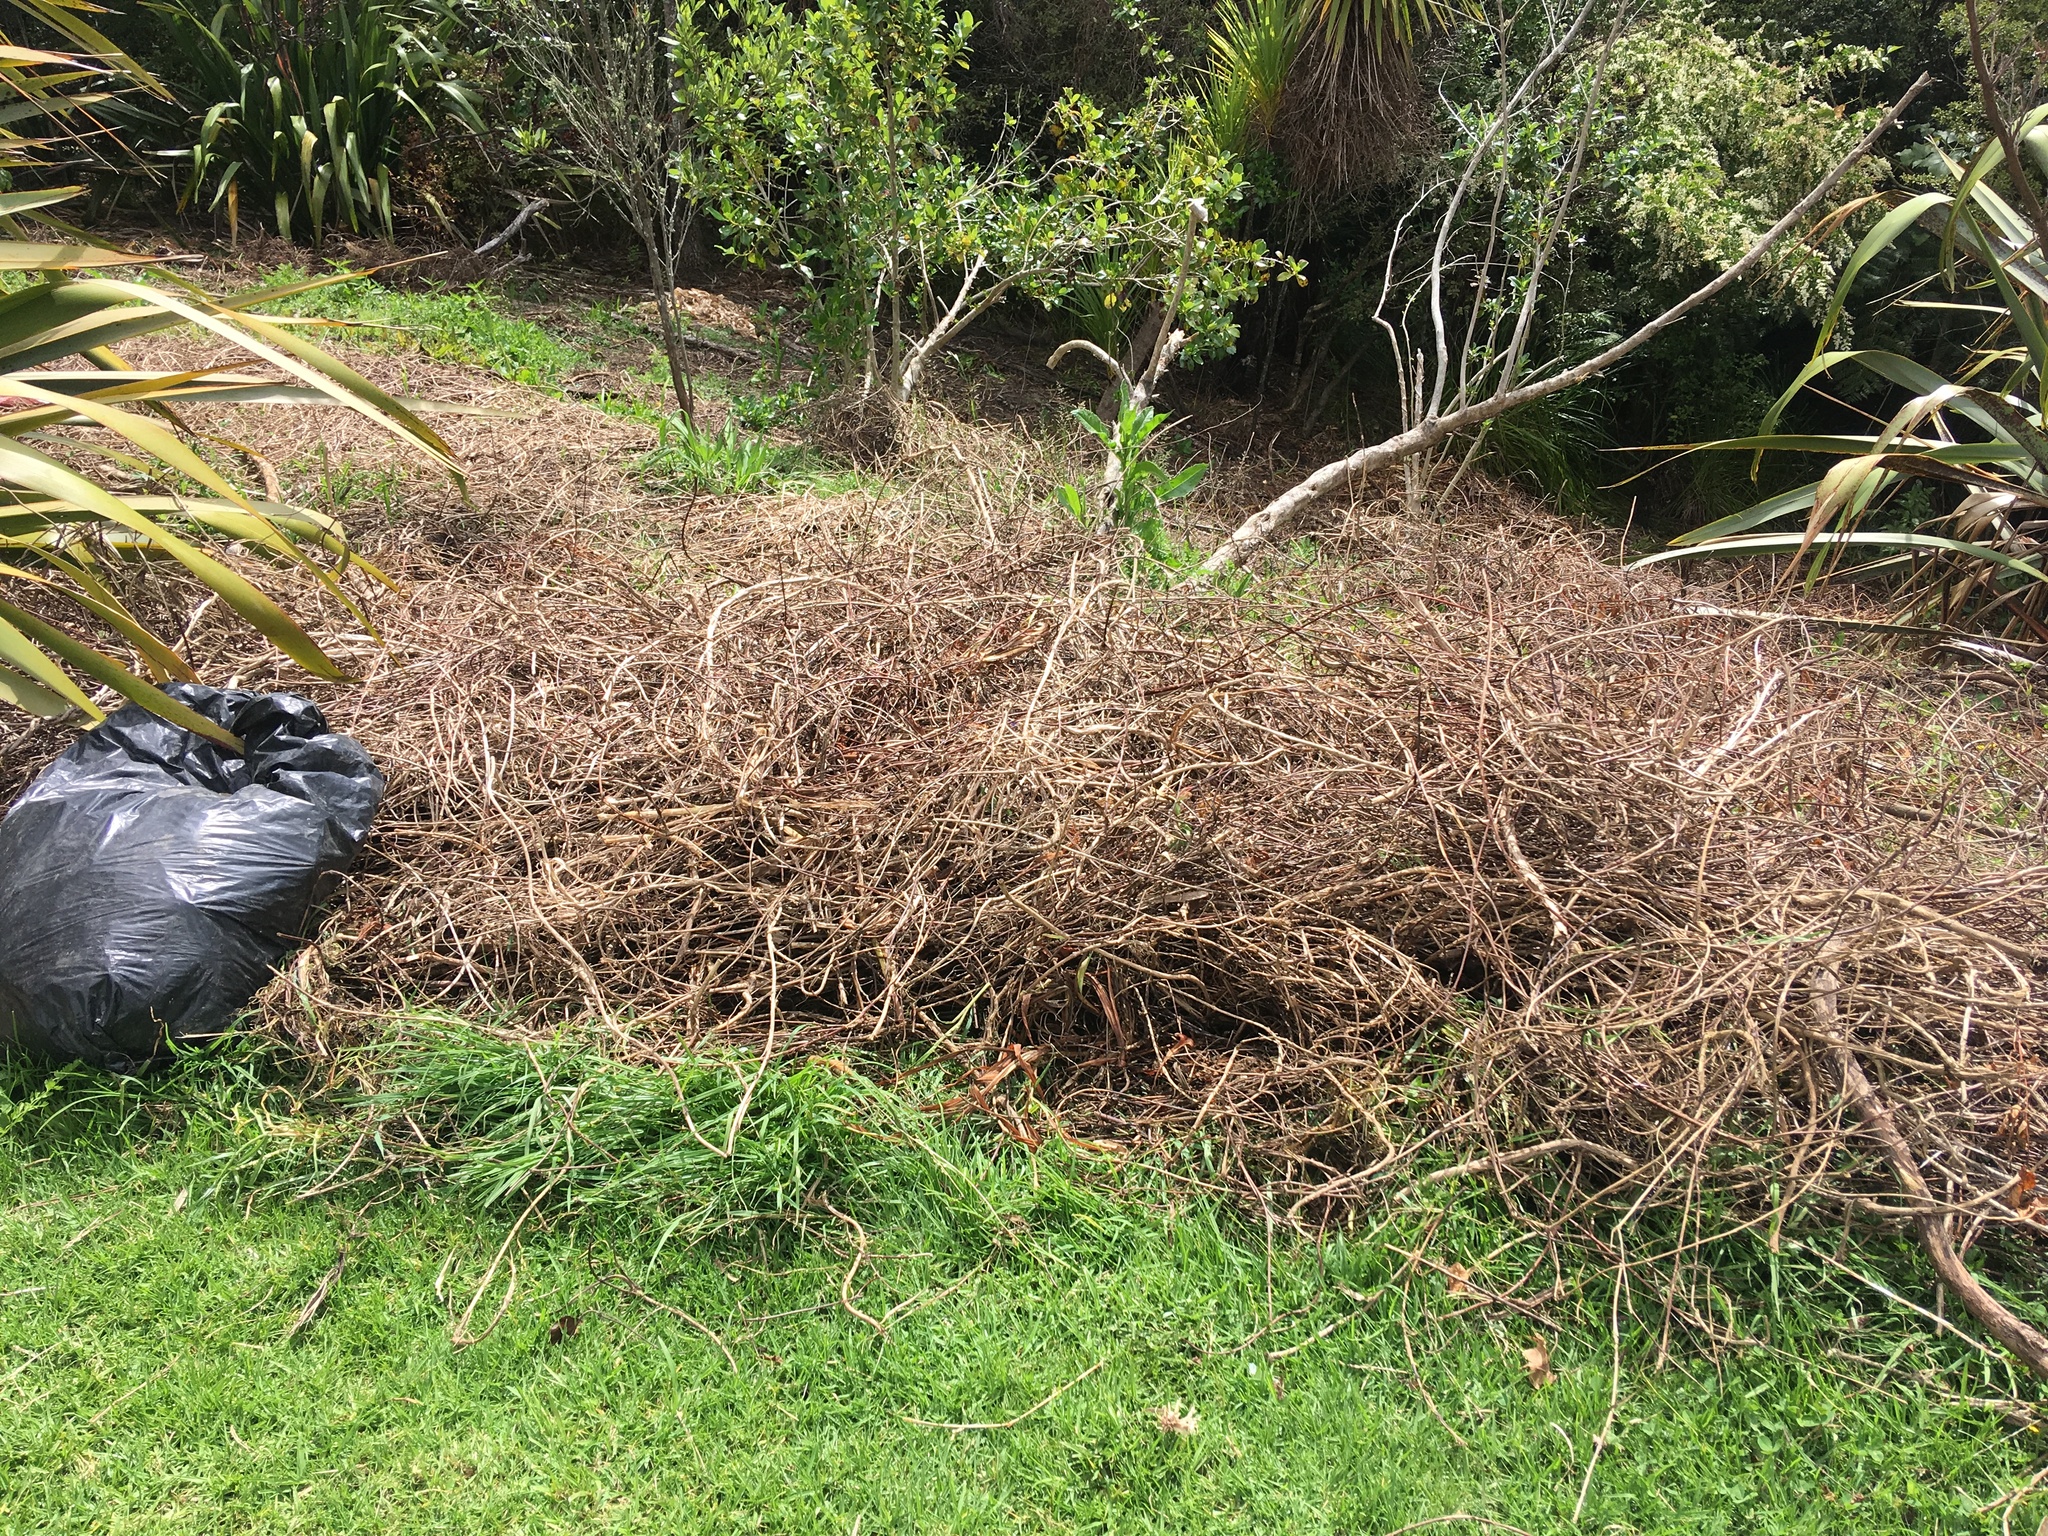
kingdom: Plantae
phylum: Tracheophyta
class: Liliopsida
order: Poales
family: Poaceae
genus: Cenchrus
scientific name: Cenchrus clandestinus
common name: Kikuyugrass
